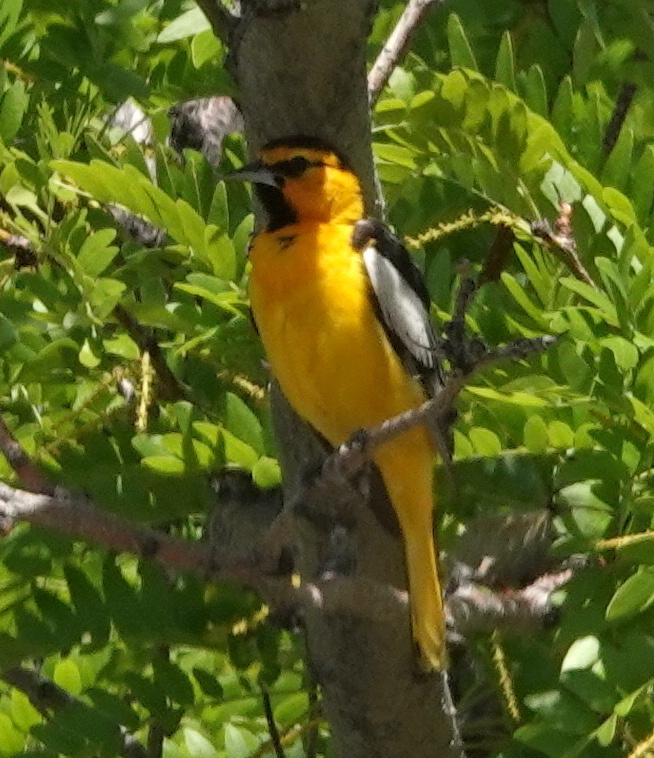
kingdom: Animalia
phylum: Chordata
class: Aves
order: Passeriformes
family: Icteridae
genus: Icterus
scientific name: Icterus bullockii
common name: Bullock's oriole
